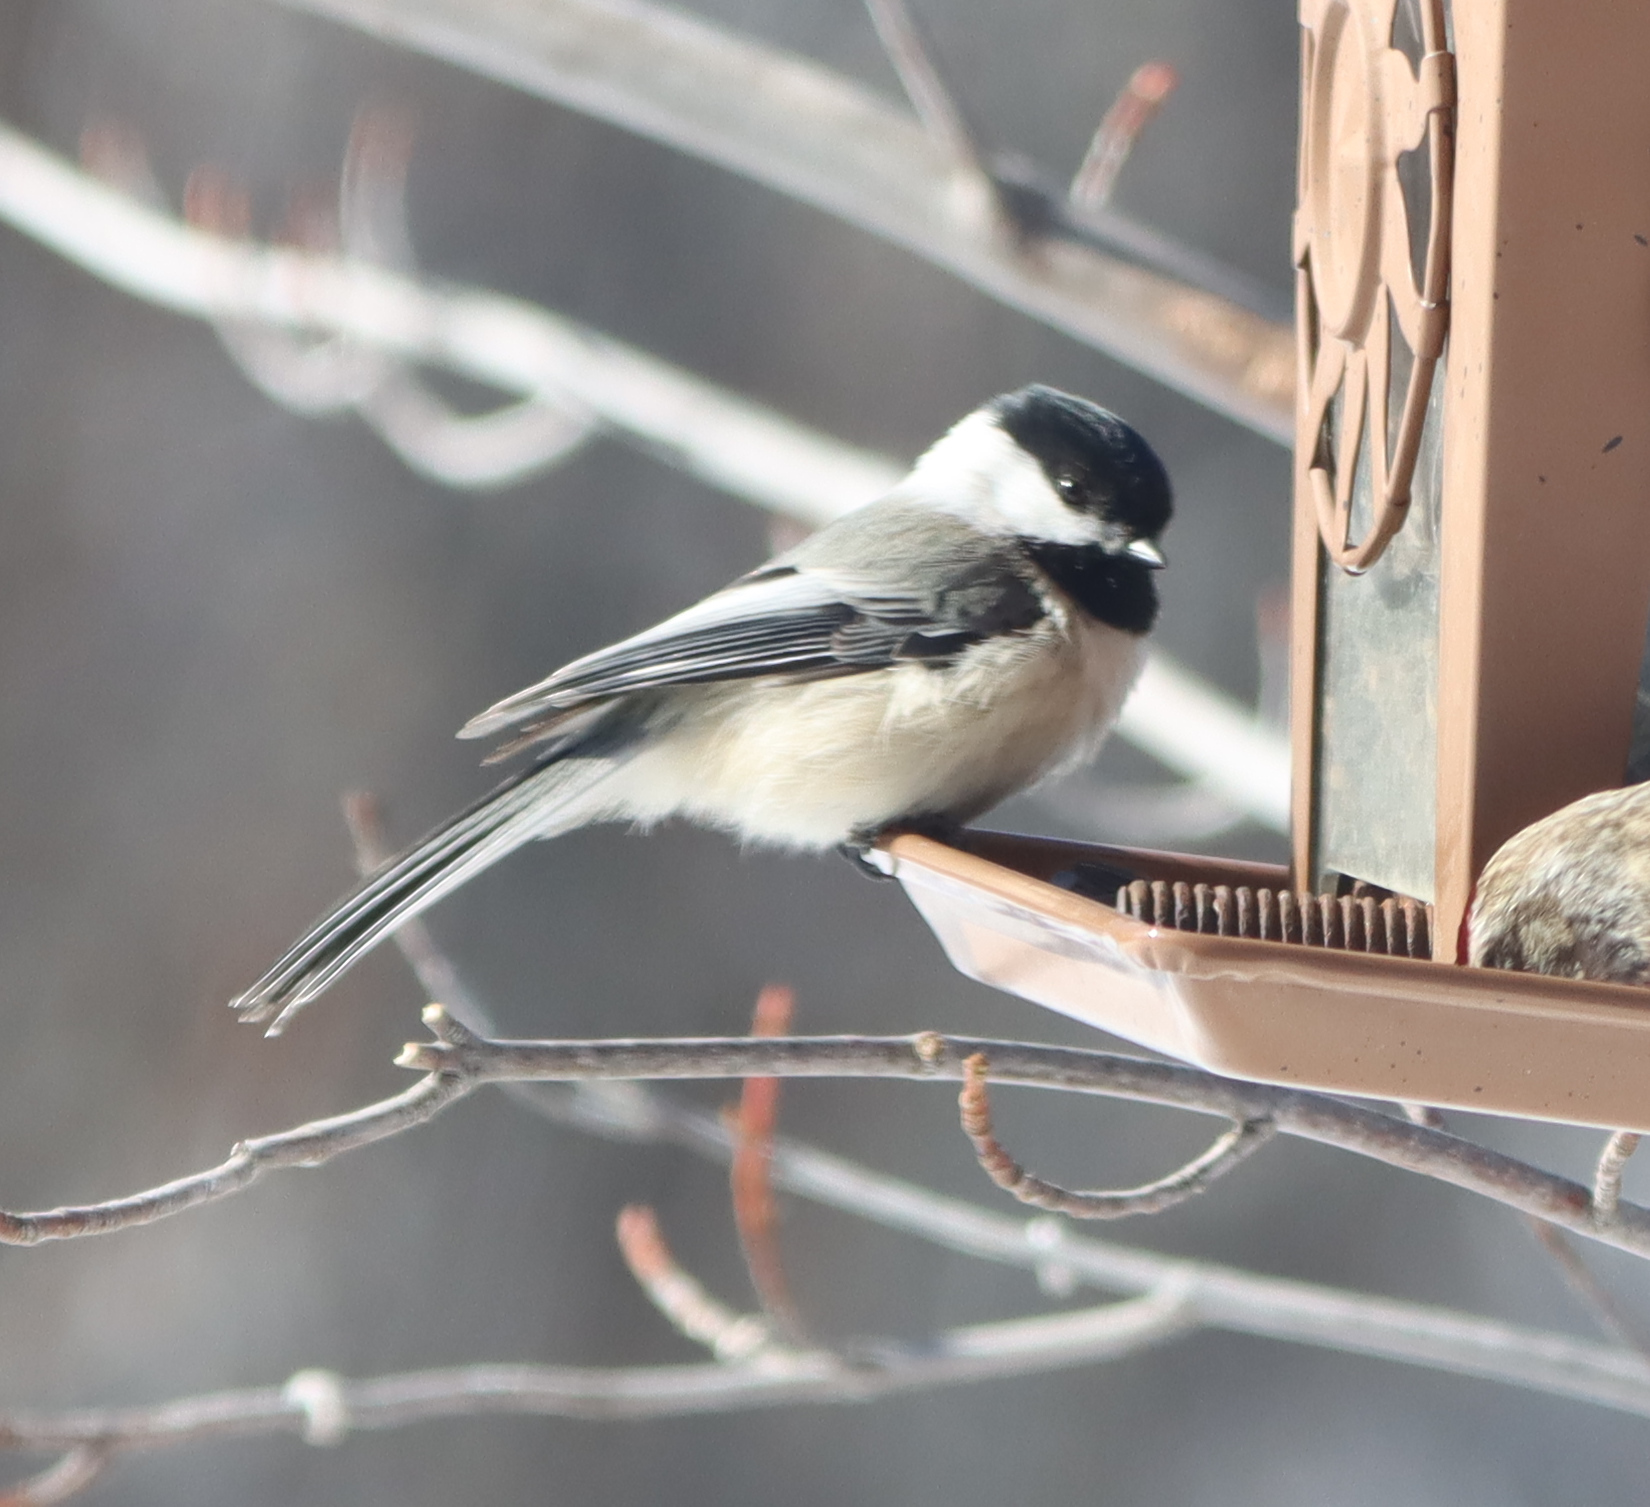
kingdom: Animalia
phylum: Chordata
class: Aves
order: Passeriformes
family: Paridae
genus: Poecile
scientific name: Poecile atricapillus
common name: Black-capped chickadee
